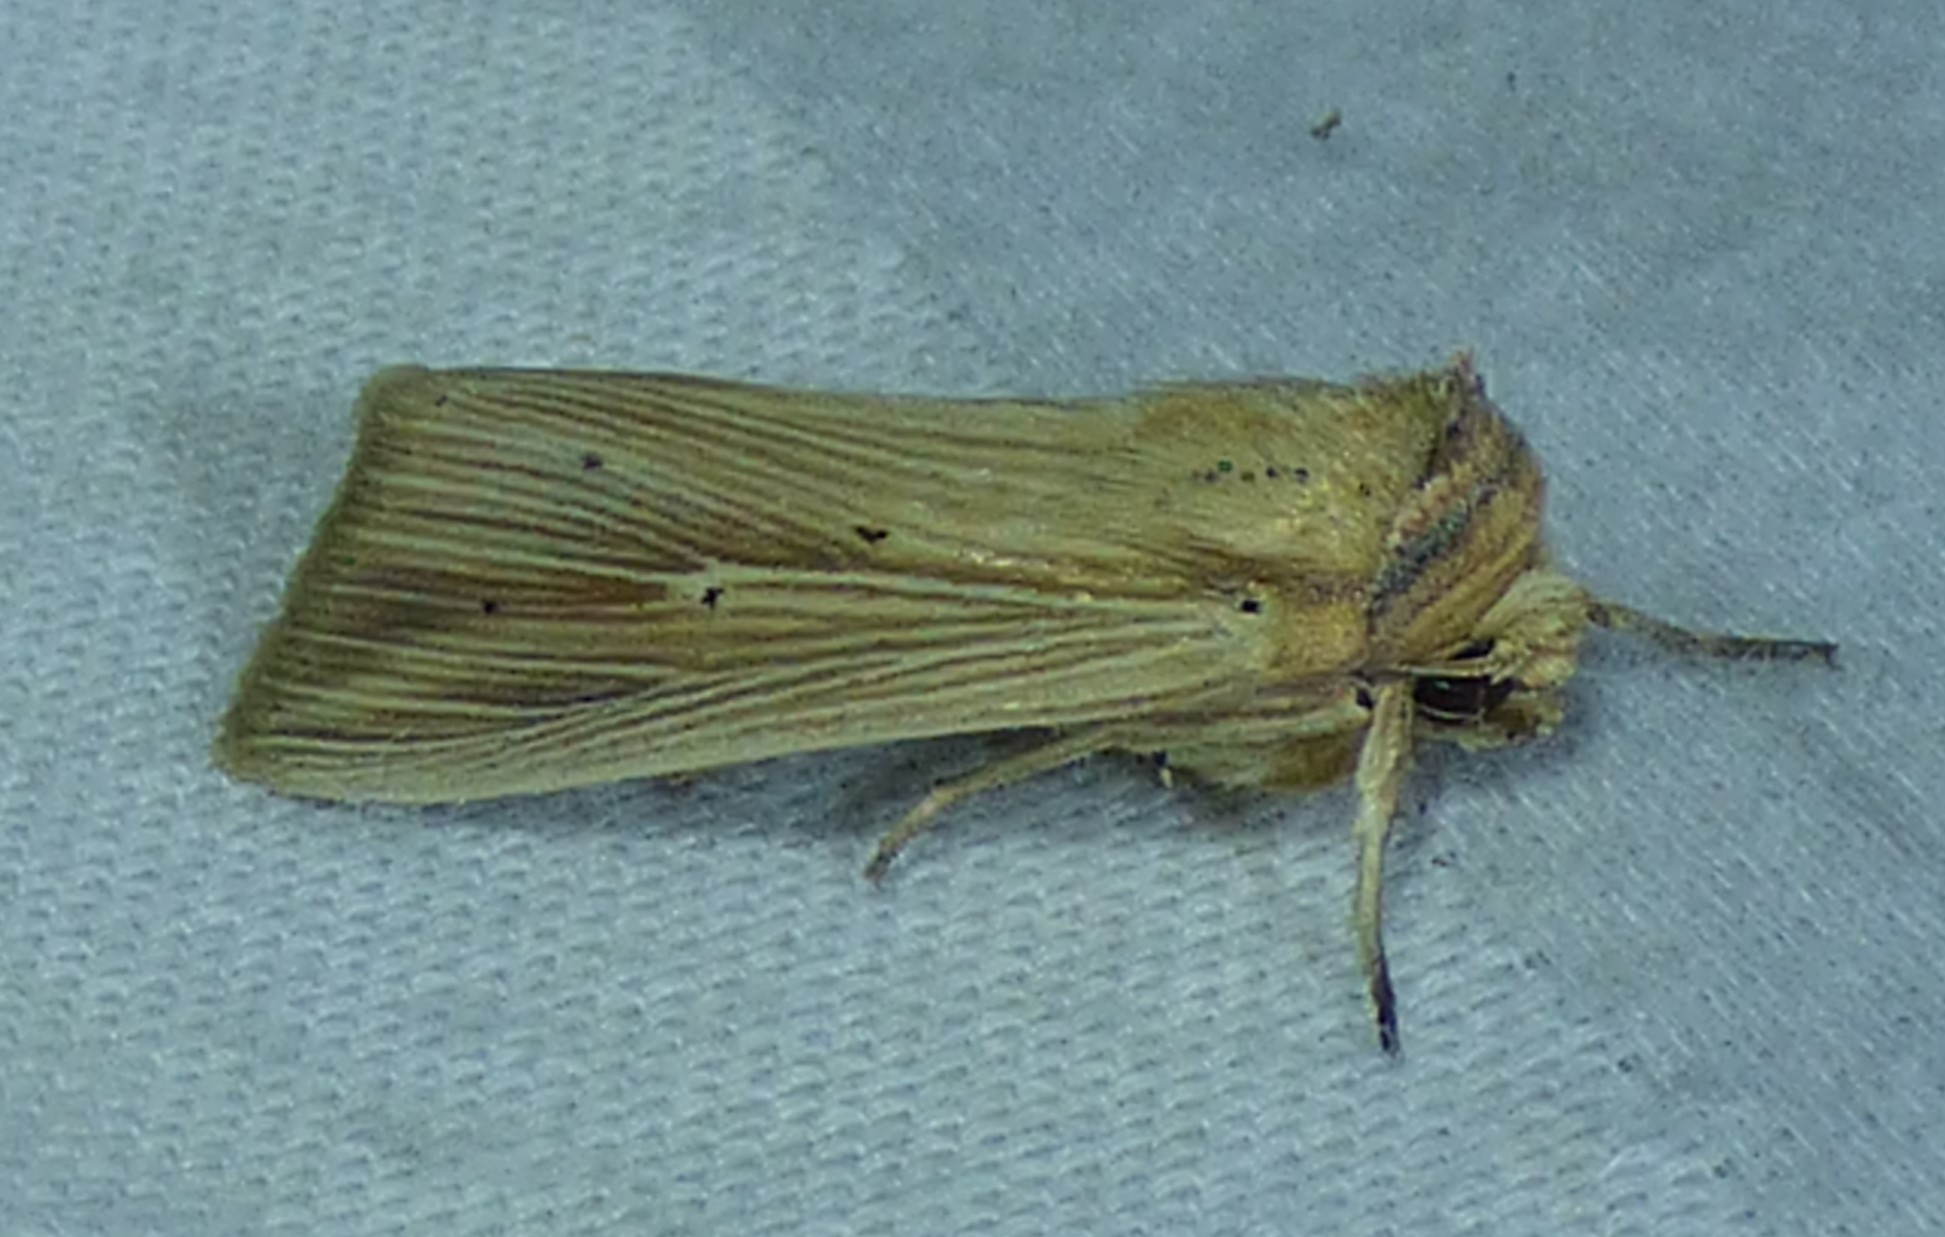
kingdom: Animalia
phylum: Arthropoda
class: Insecta
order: Lepidoptera
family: Noctuidae
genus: Leucania
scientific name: Leucania adjuta
